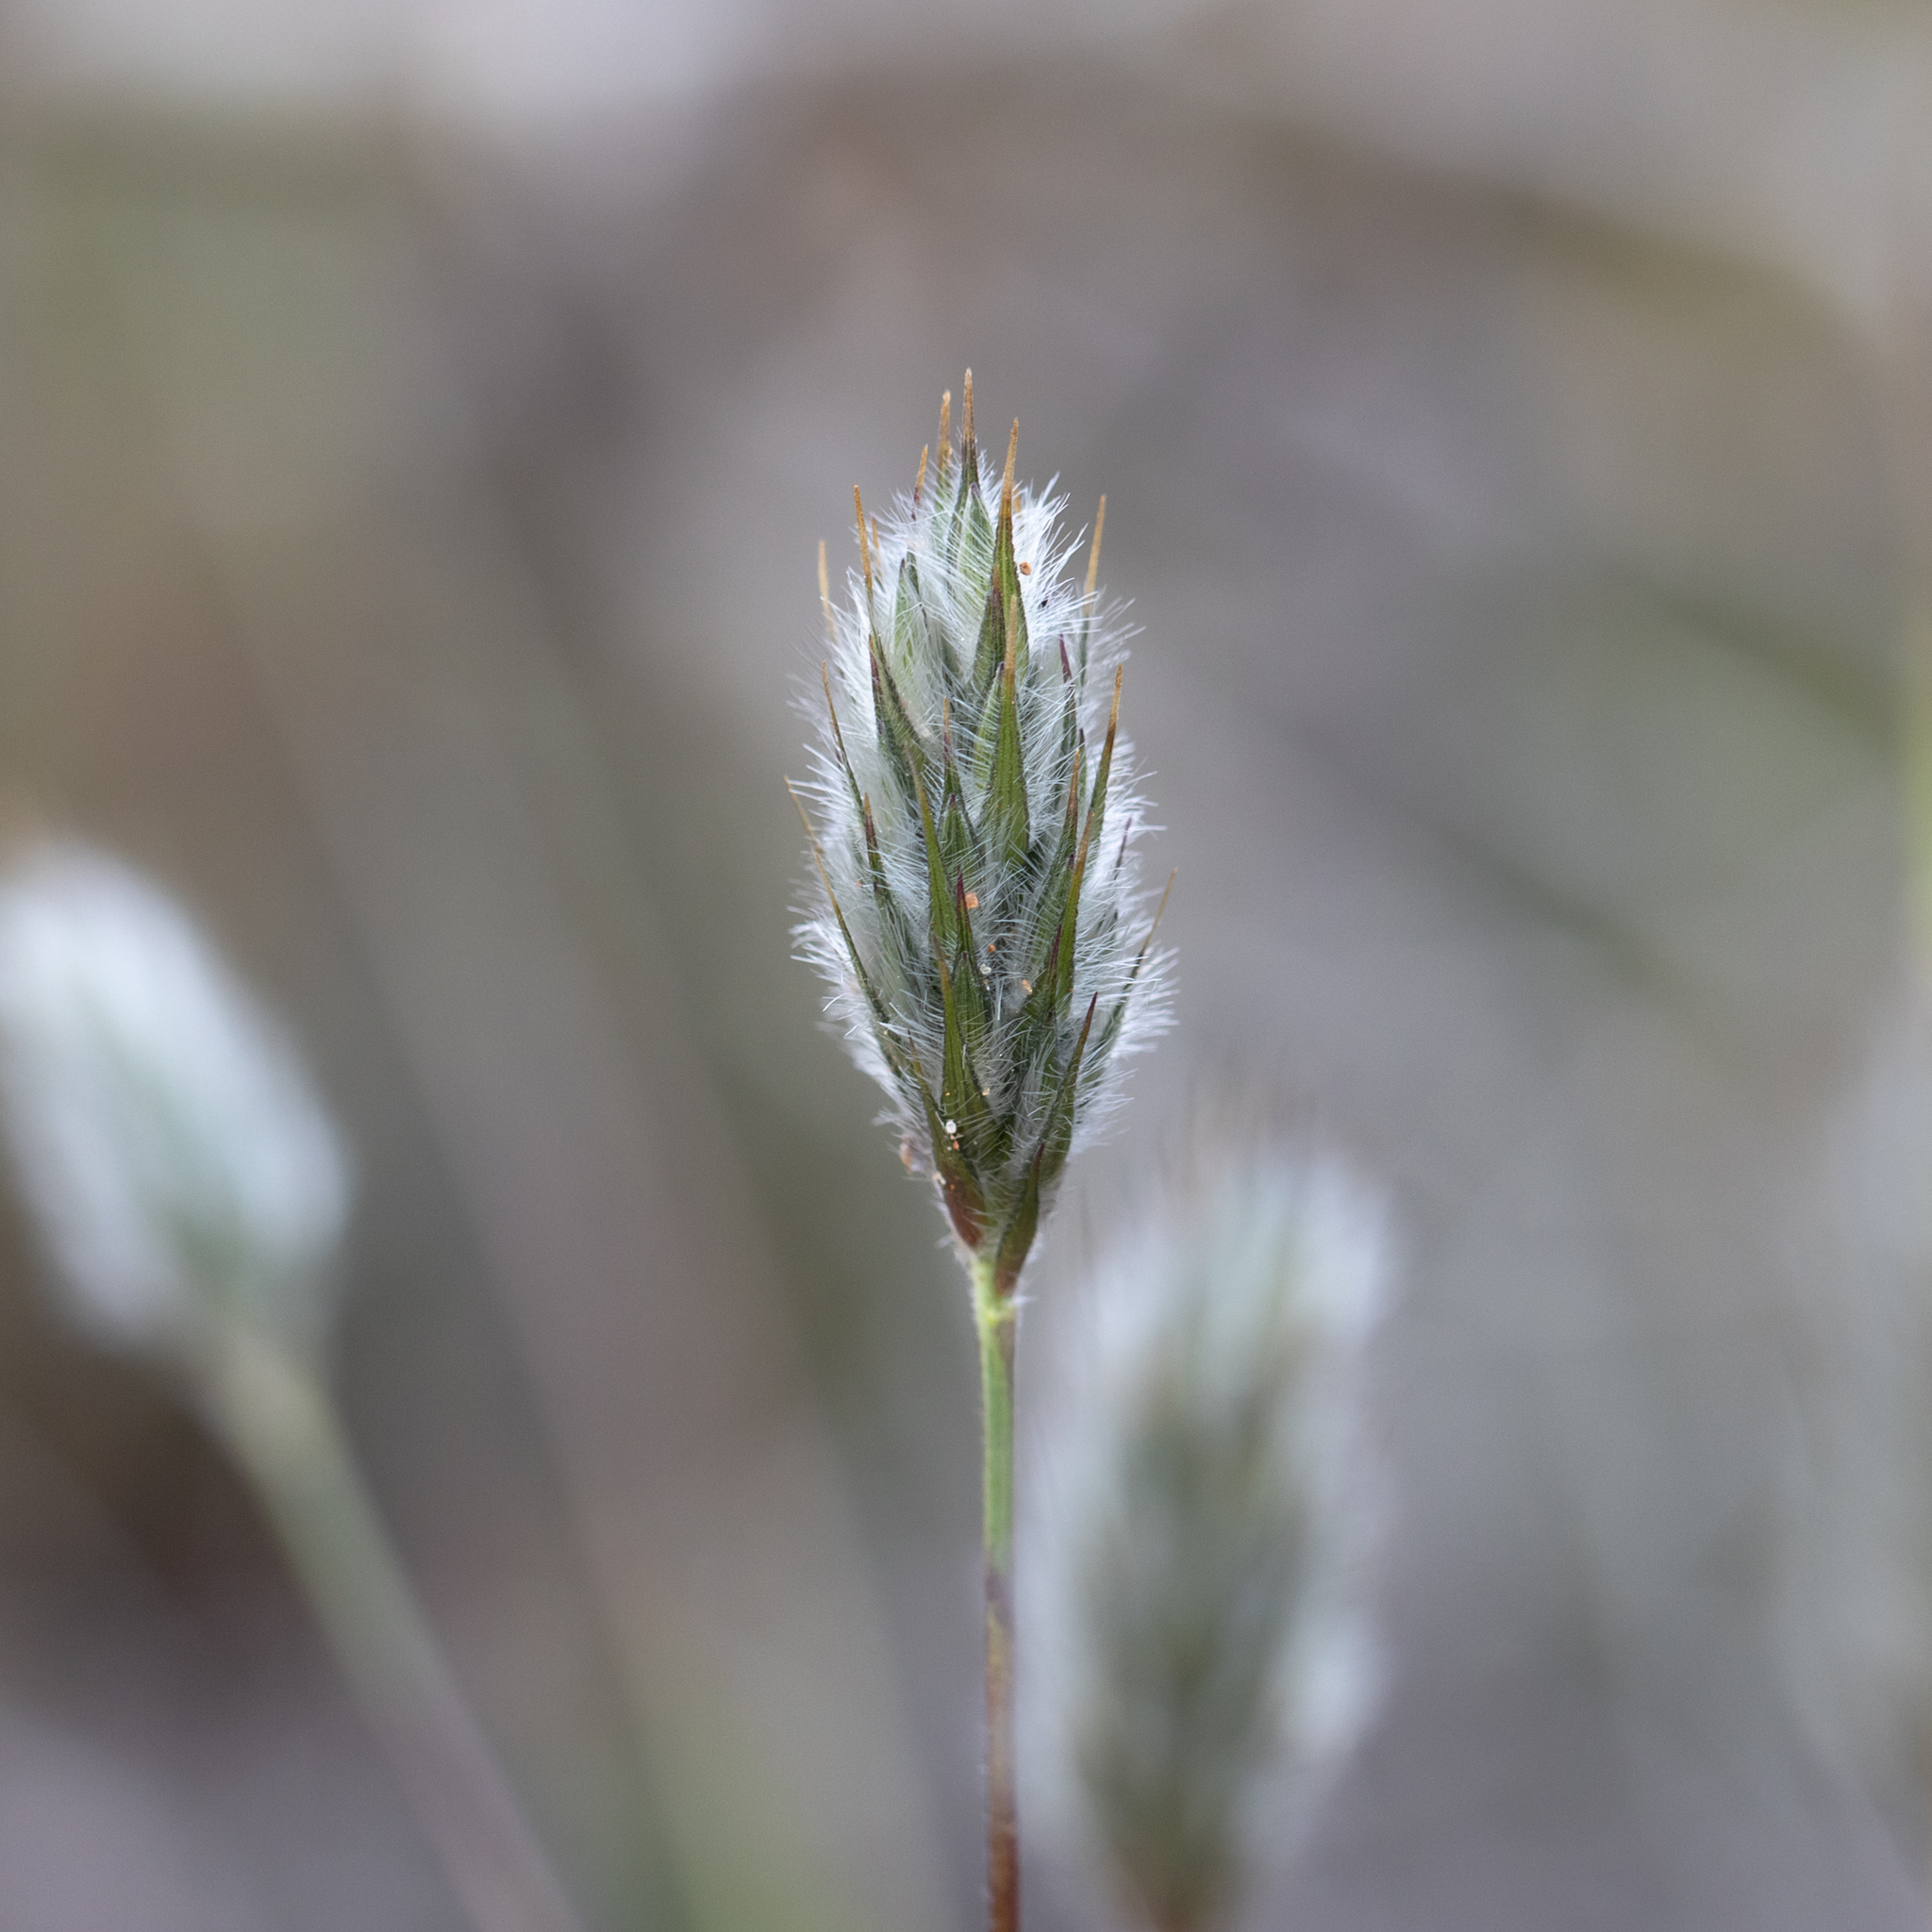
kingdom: Plantae
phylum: Tracheophyta
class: Liliopsida
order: Poales
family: Poaceae
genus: Neurachne
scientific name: Neurachne alopecuroidea
